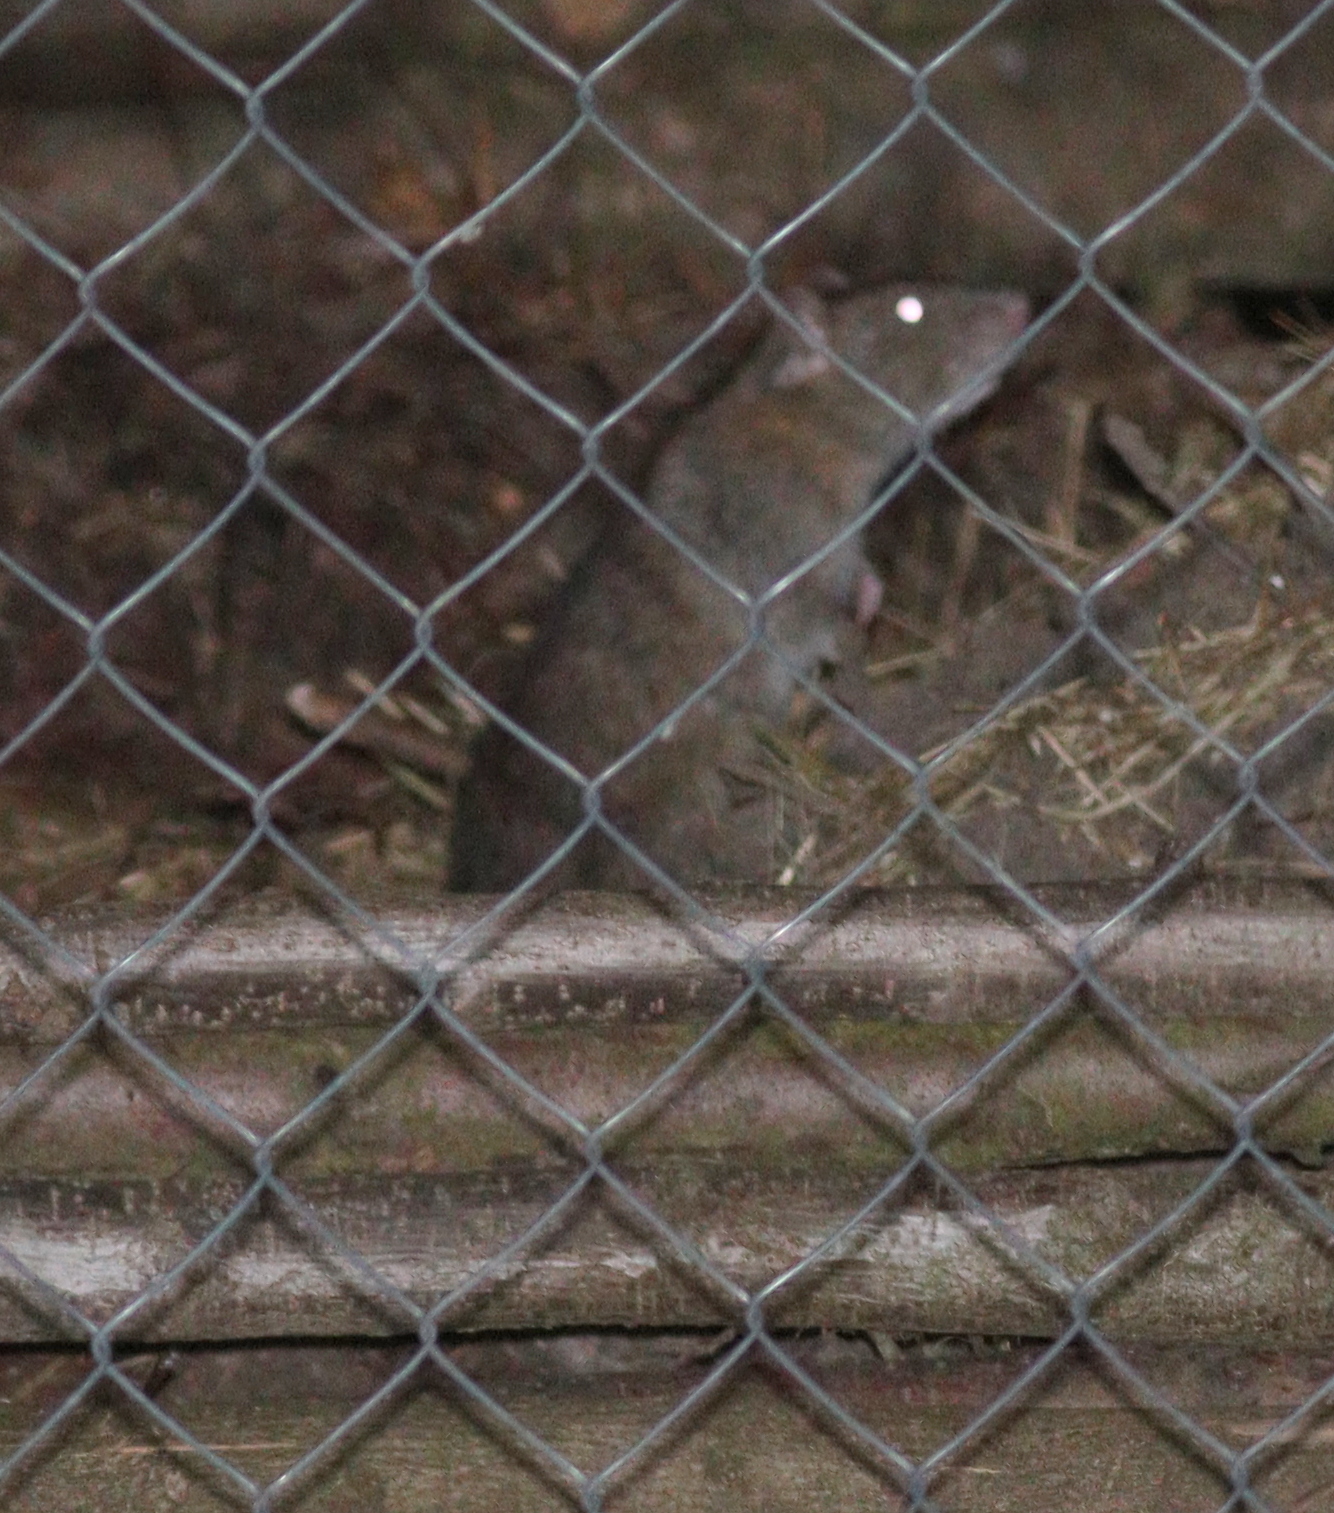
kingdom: Animalia
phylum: Chordata
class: Mammalia
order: Rodentia
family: Muridae
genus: Rattus
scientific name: Rattus norvegicus
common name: Brown rat
